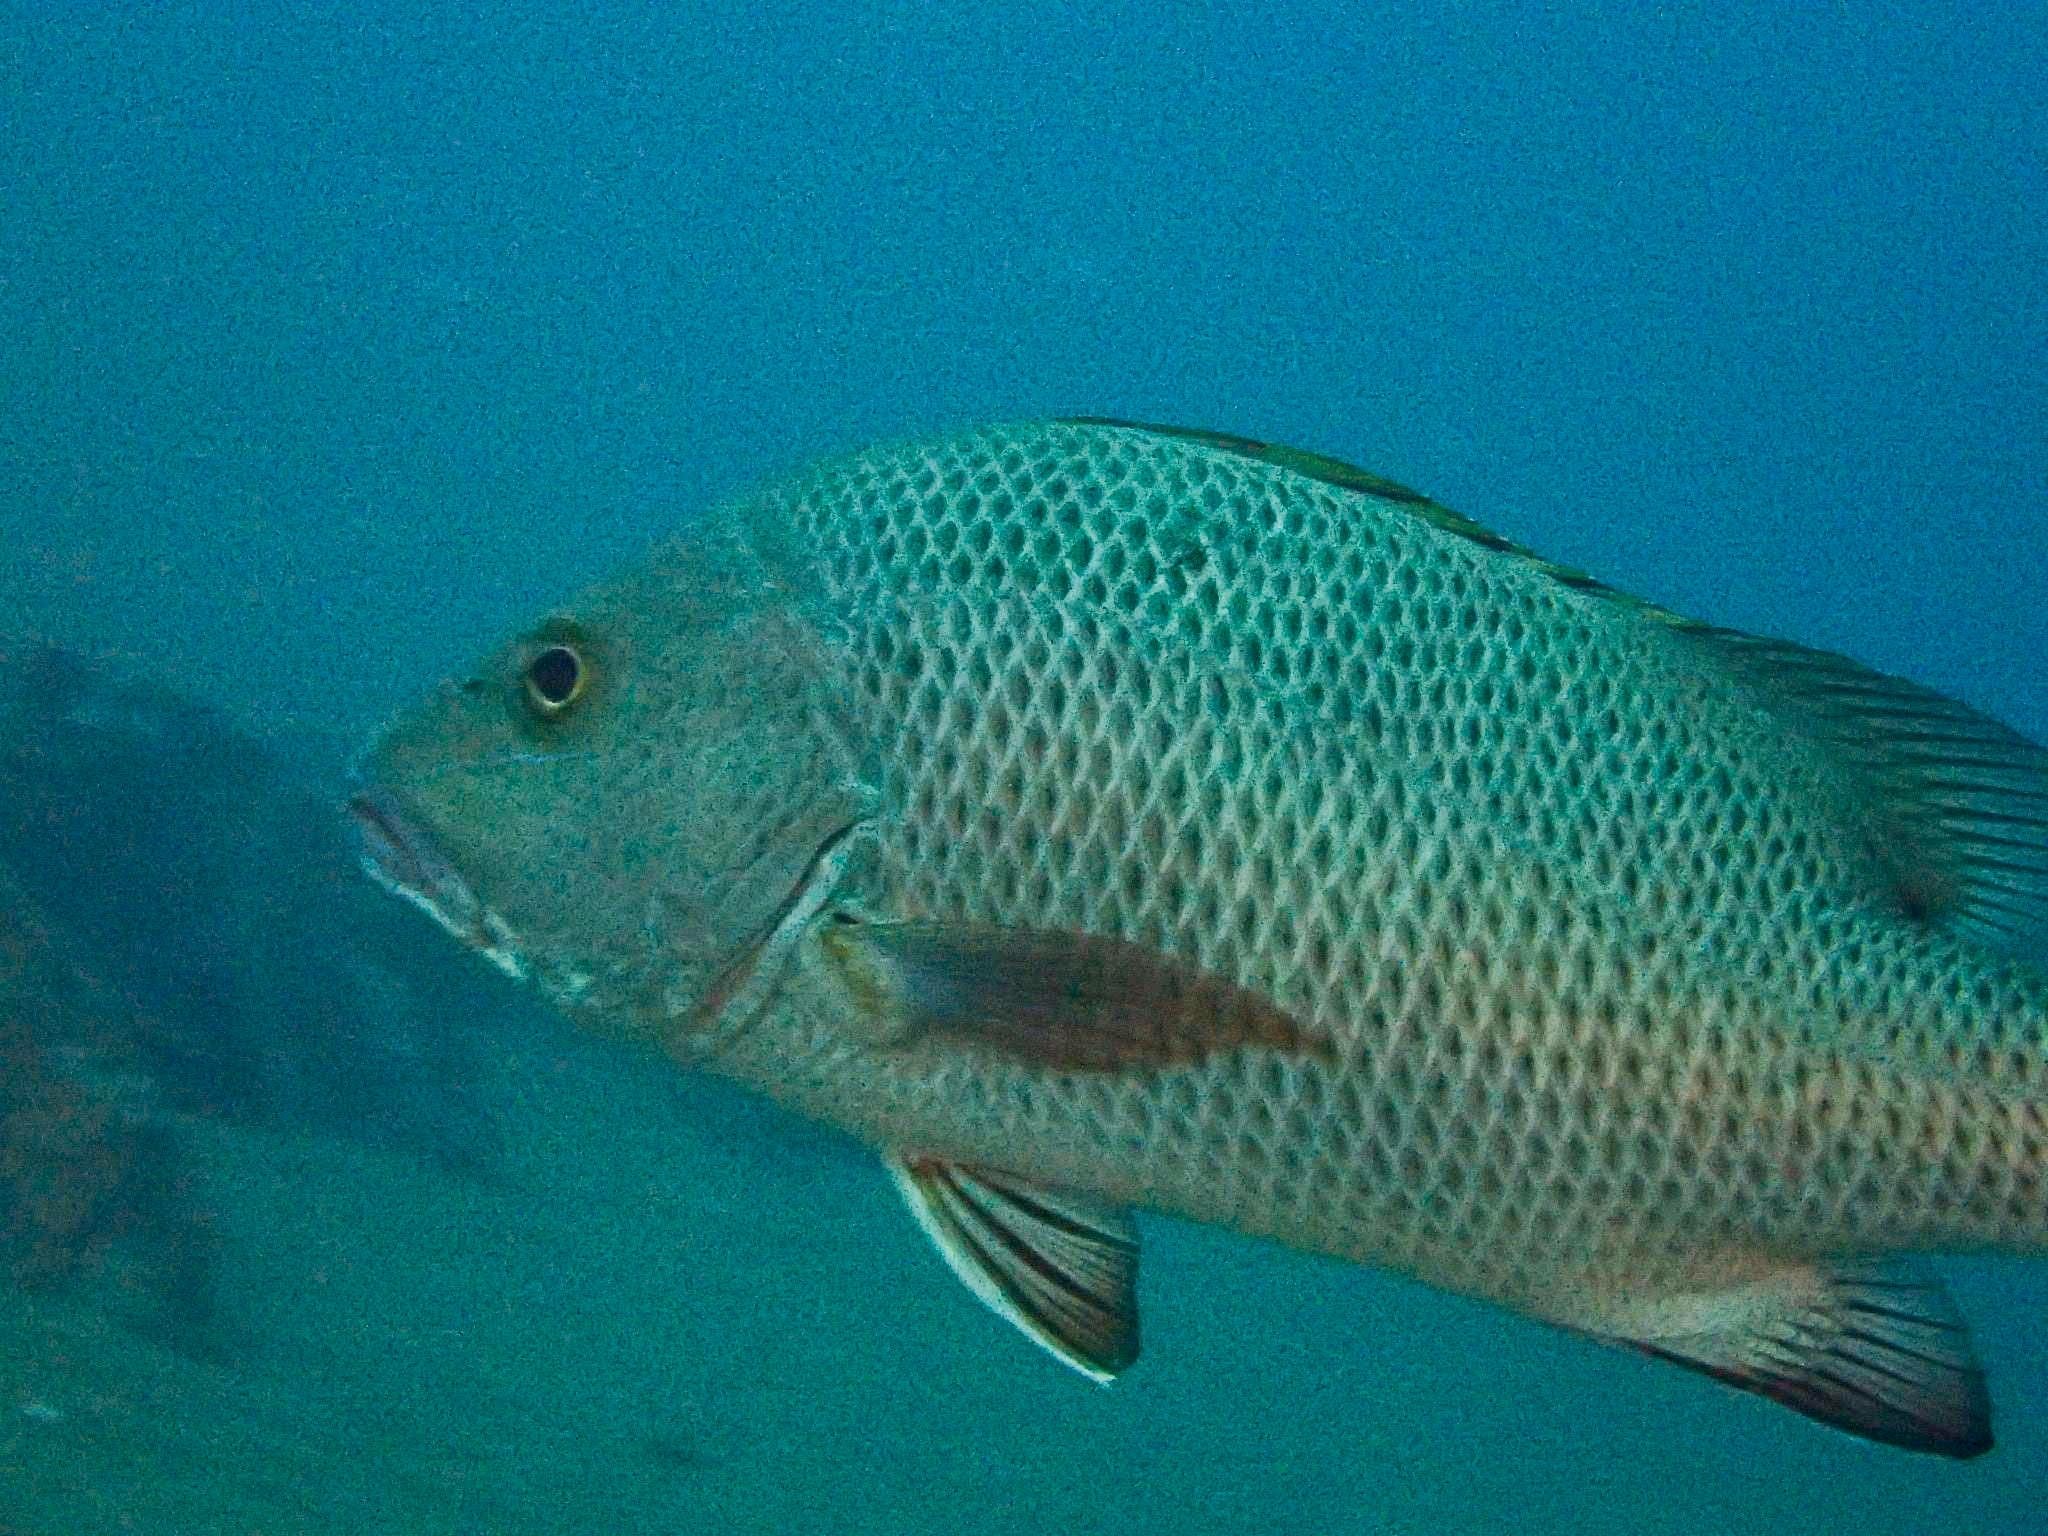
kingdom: Animalia
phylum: Chordata
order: Perciformes
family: Lutjanidae
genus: Lutjanus
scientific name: Lutjanus argentimaculatus
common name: Mangrove red snapper
